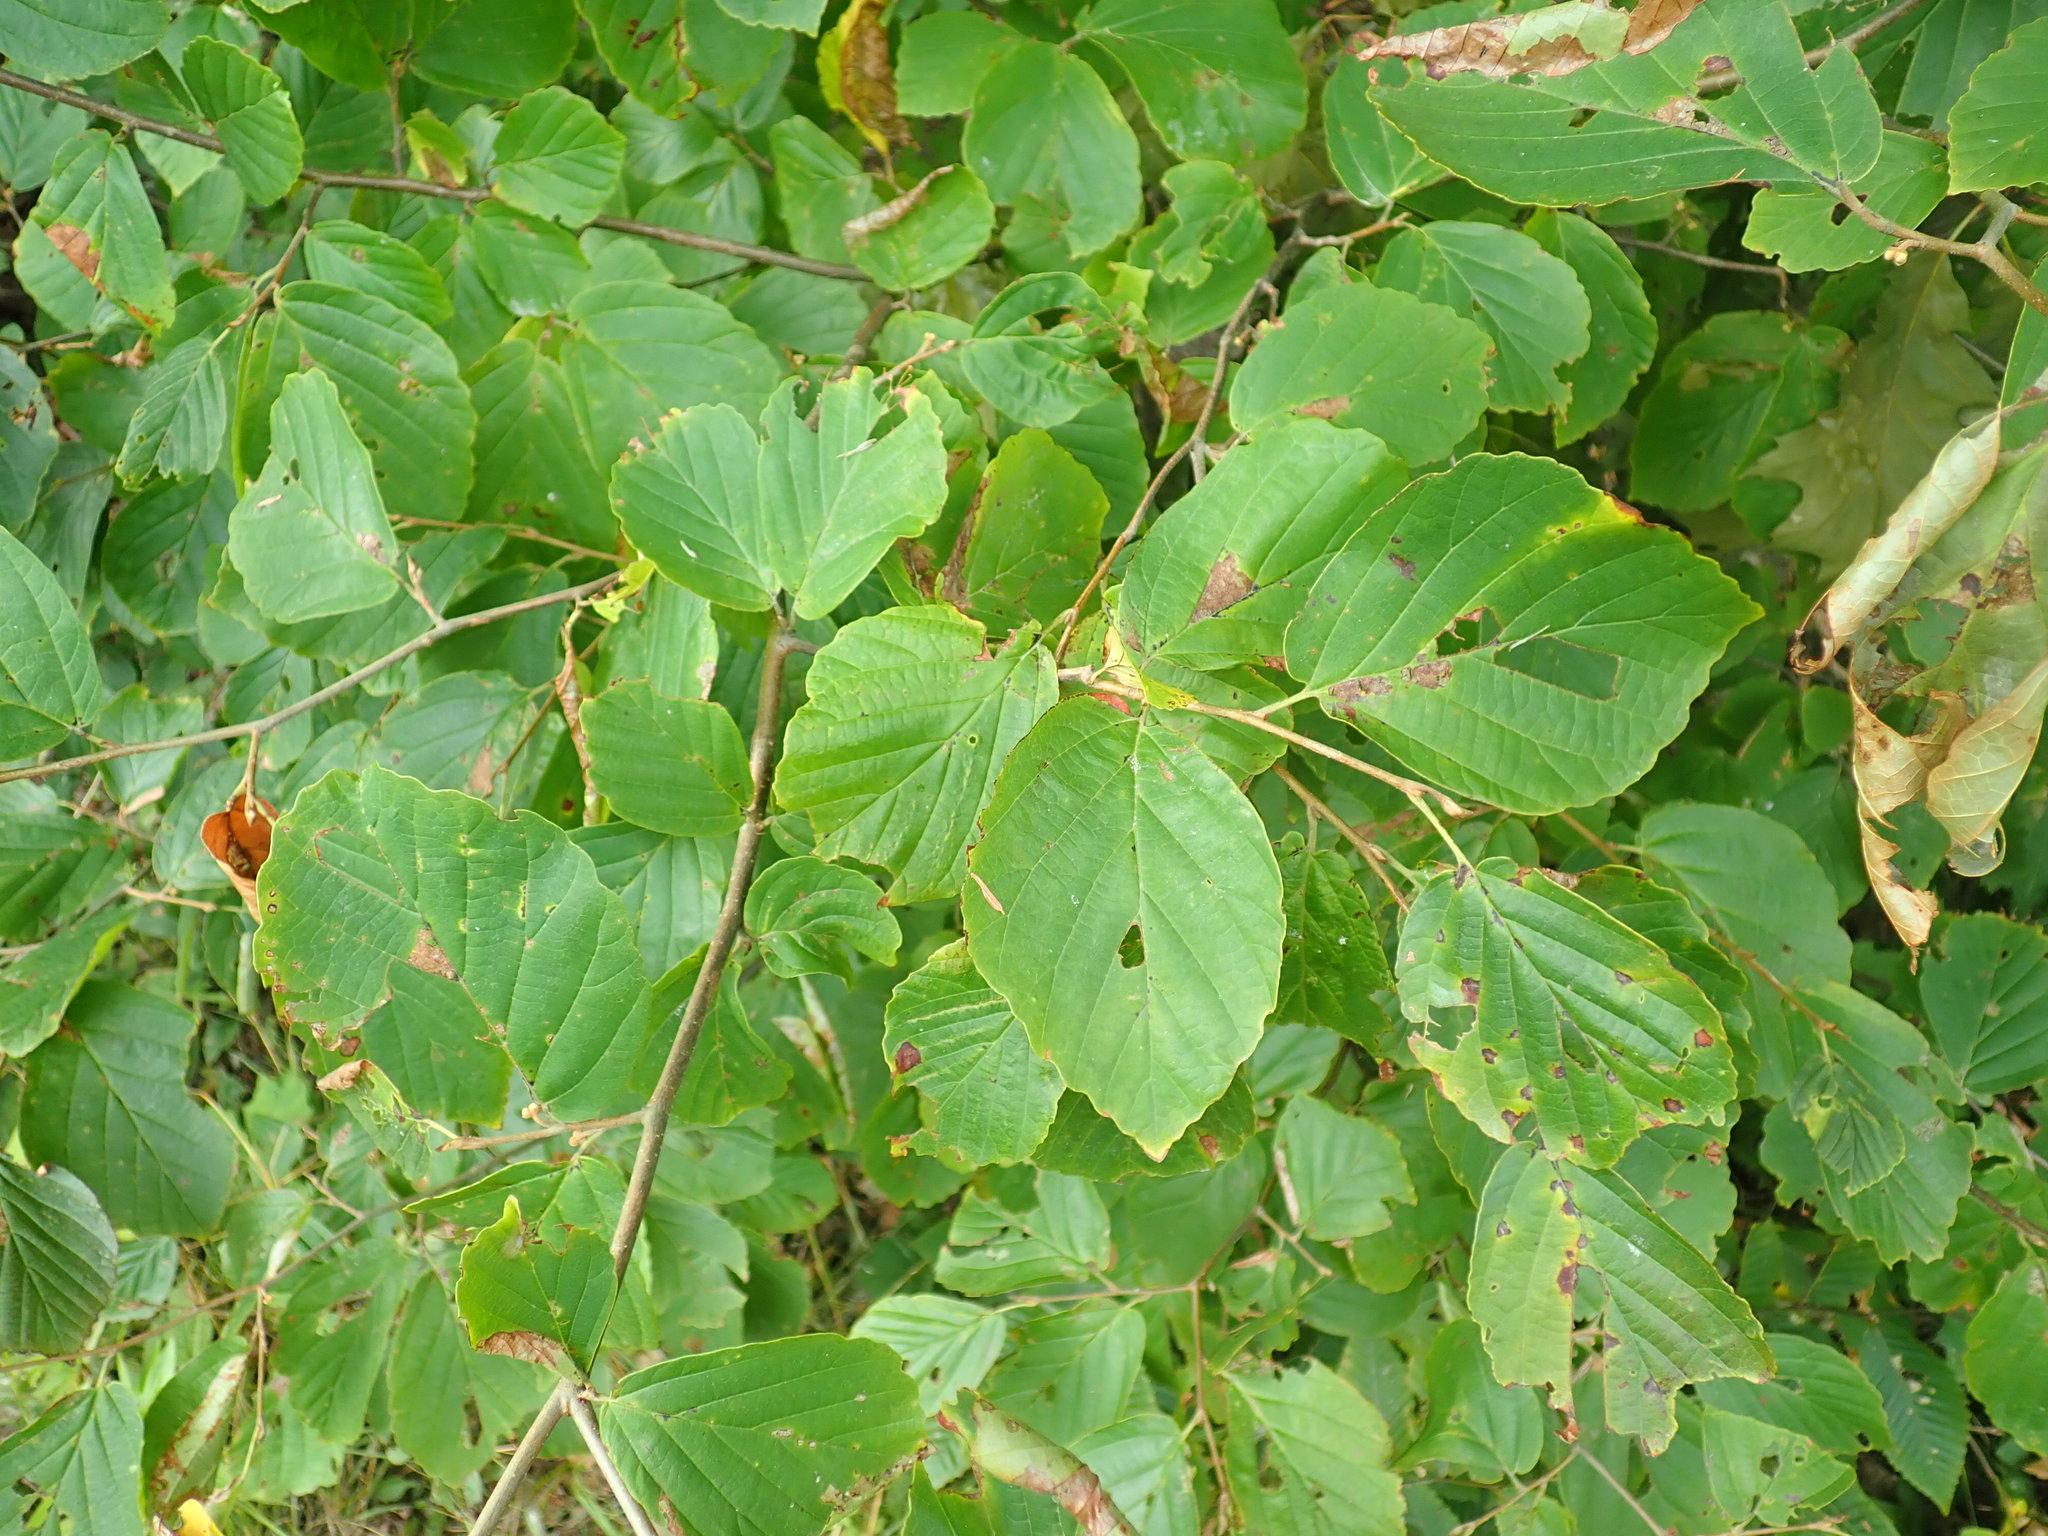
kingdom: Plantae
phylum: Tracheophyta
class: Magnoliopsida
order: Saxifragales
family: Hamamelidaceae
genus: Hamamelis
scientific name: Hamamelis virginiana
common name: Witch-hazel
